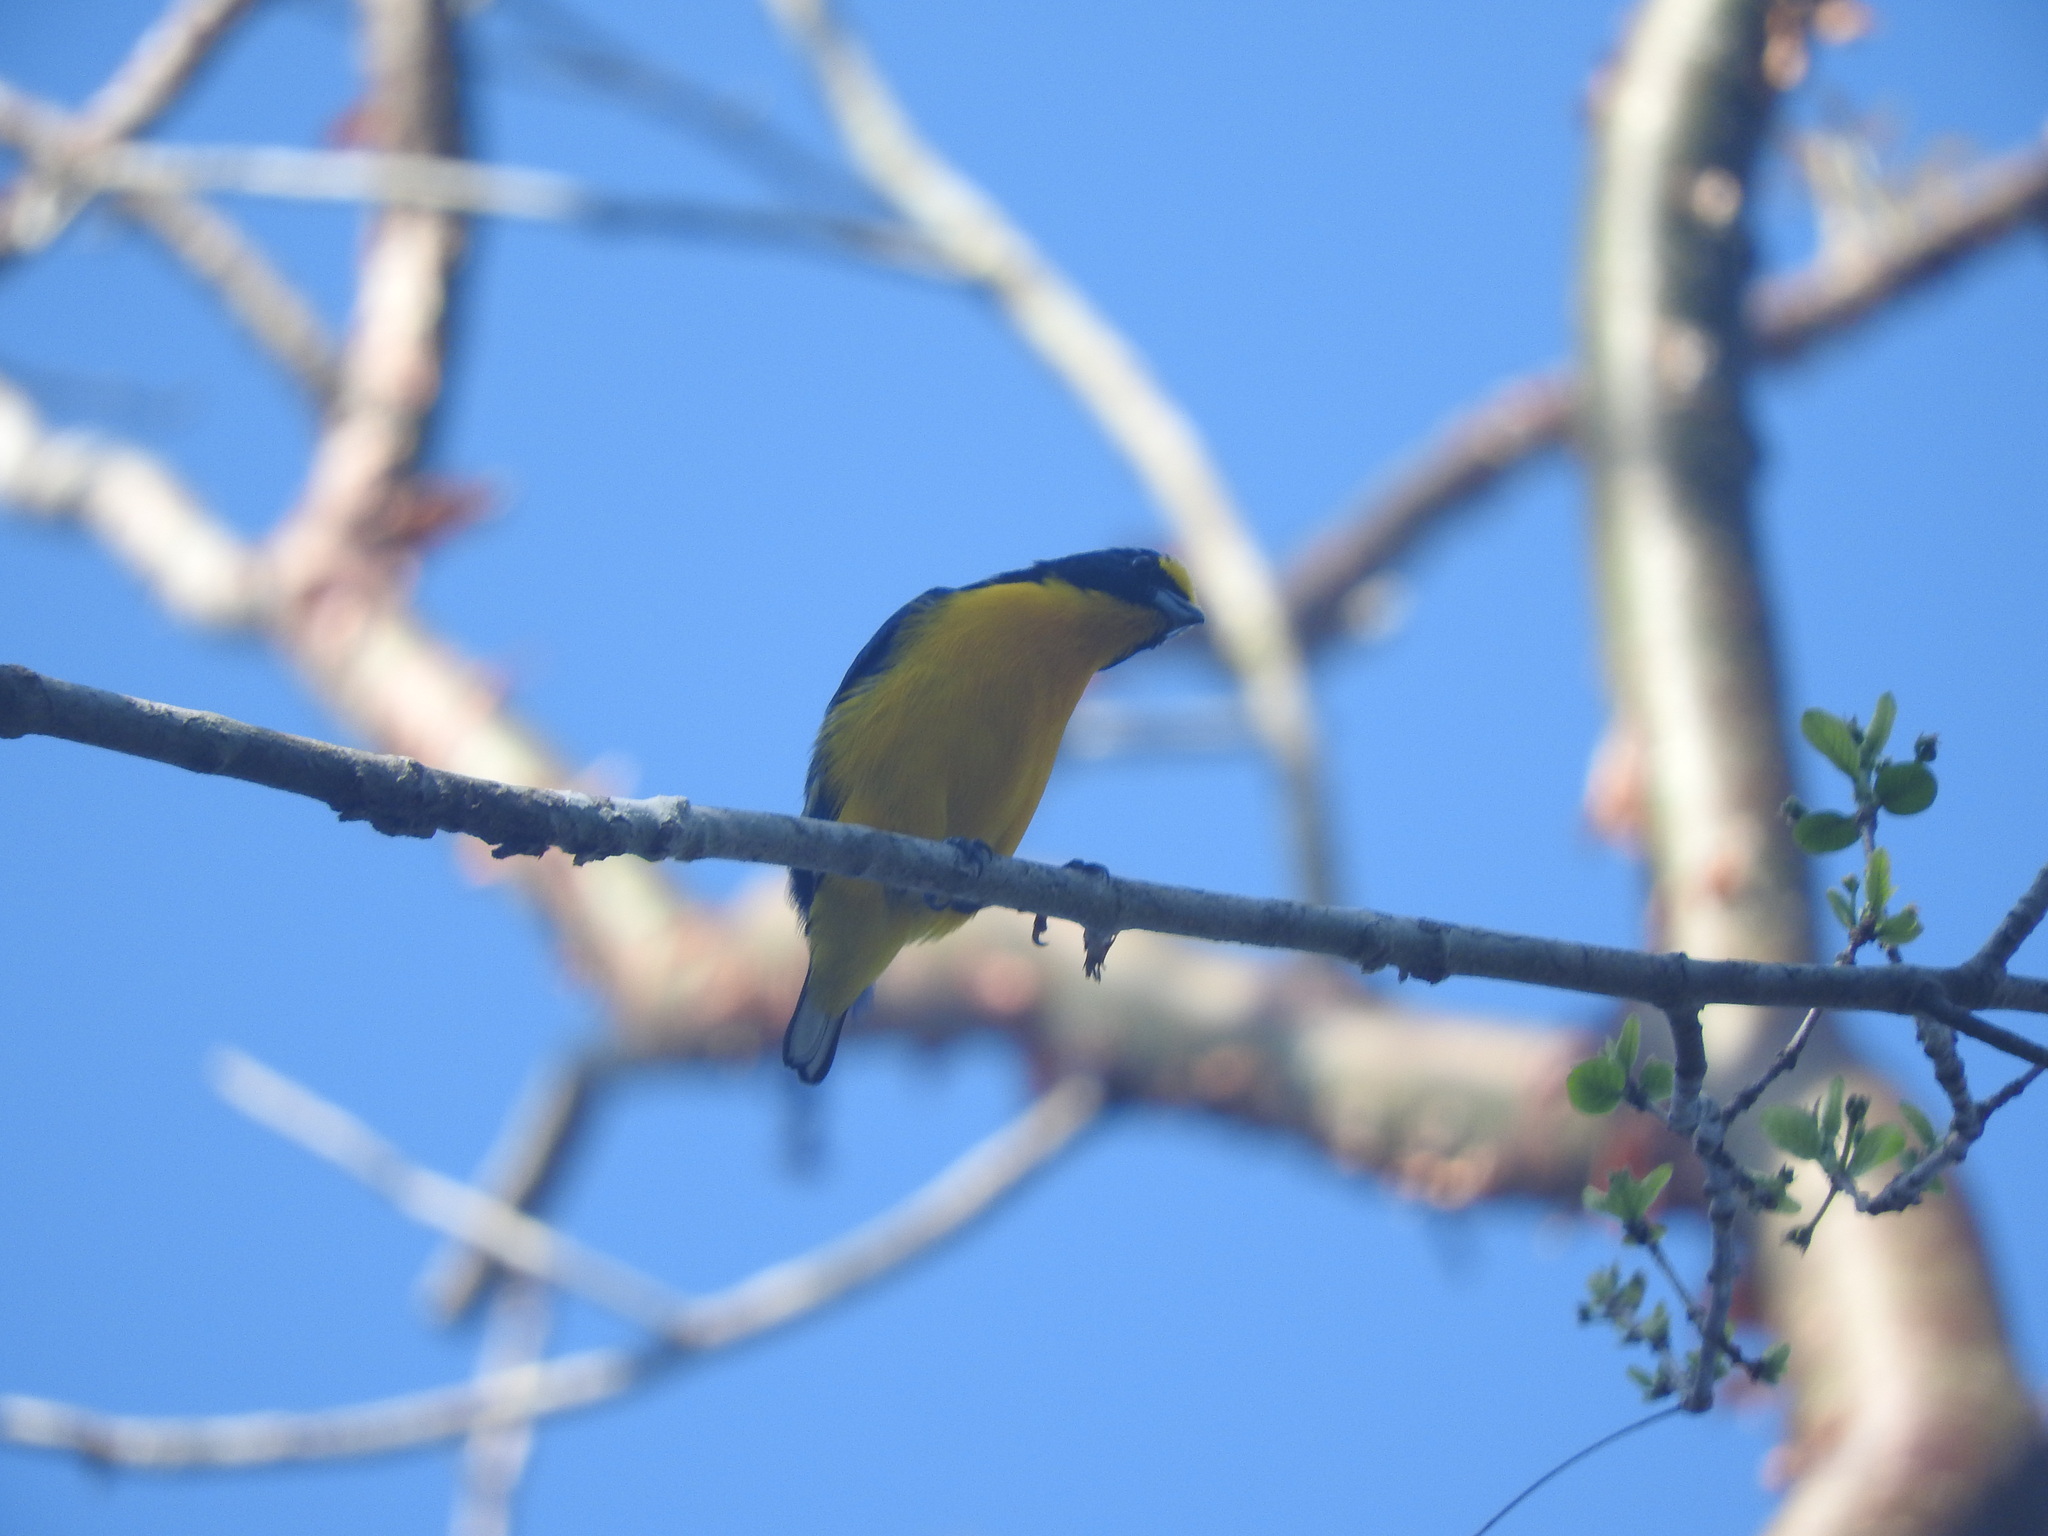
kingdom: Animalia
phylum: Chordata
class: Aves
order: Passeriformes
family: Fringillidae
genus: Euphonia
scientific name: Euphonia hirundinacea
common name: Yellow-throated euphonia
